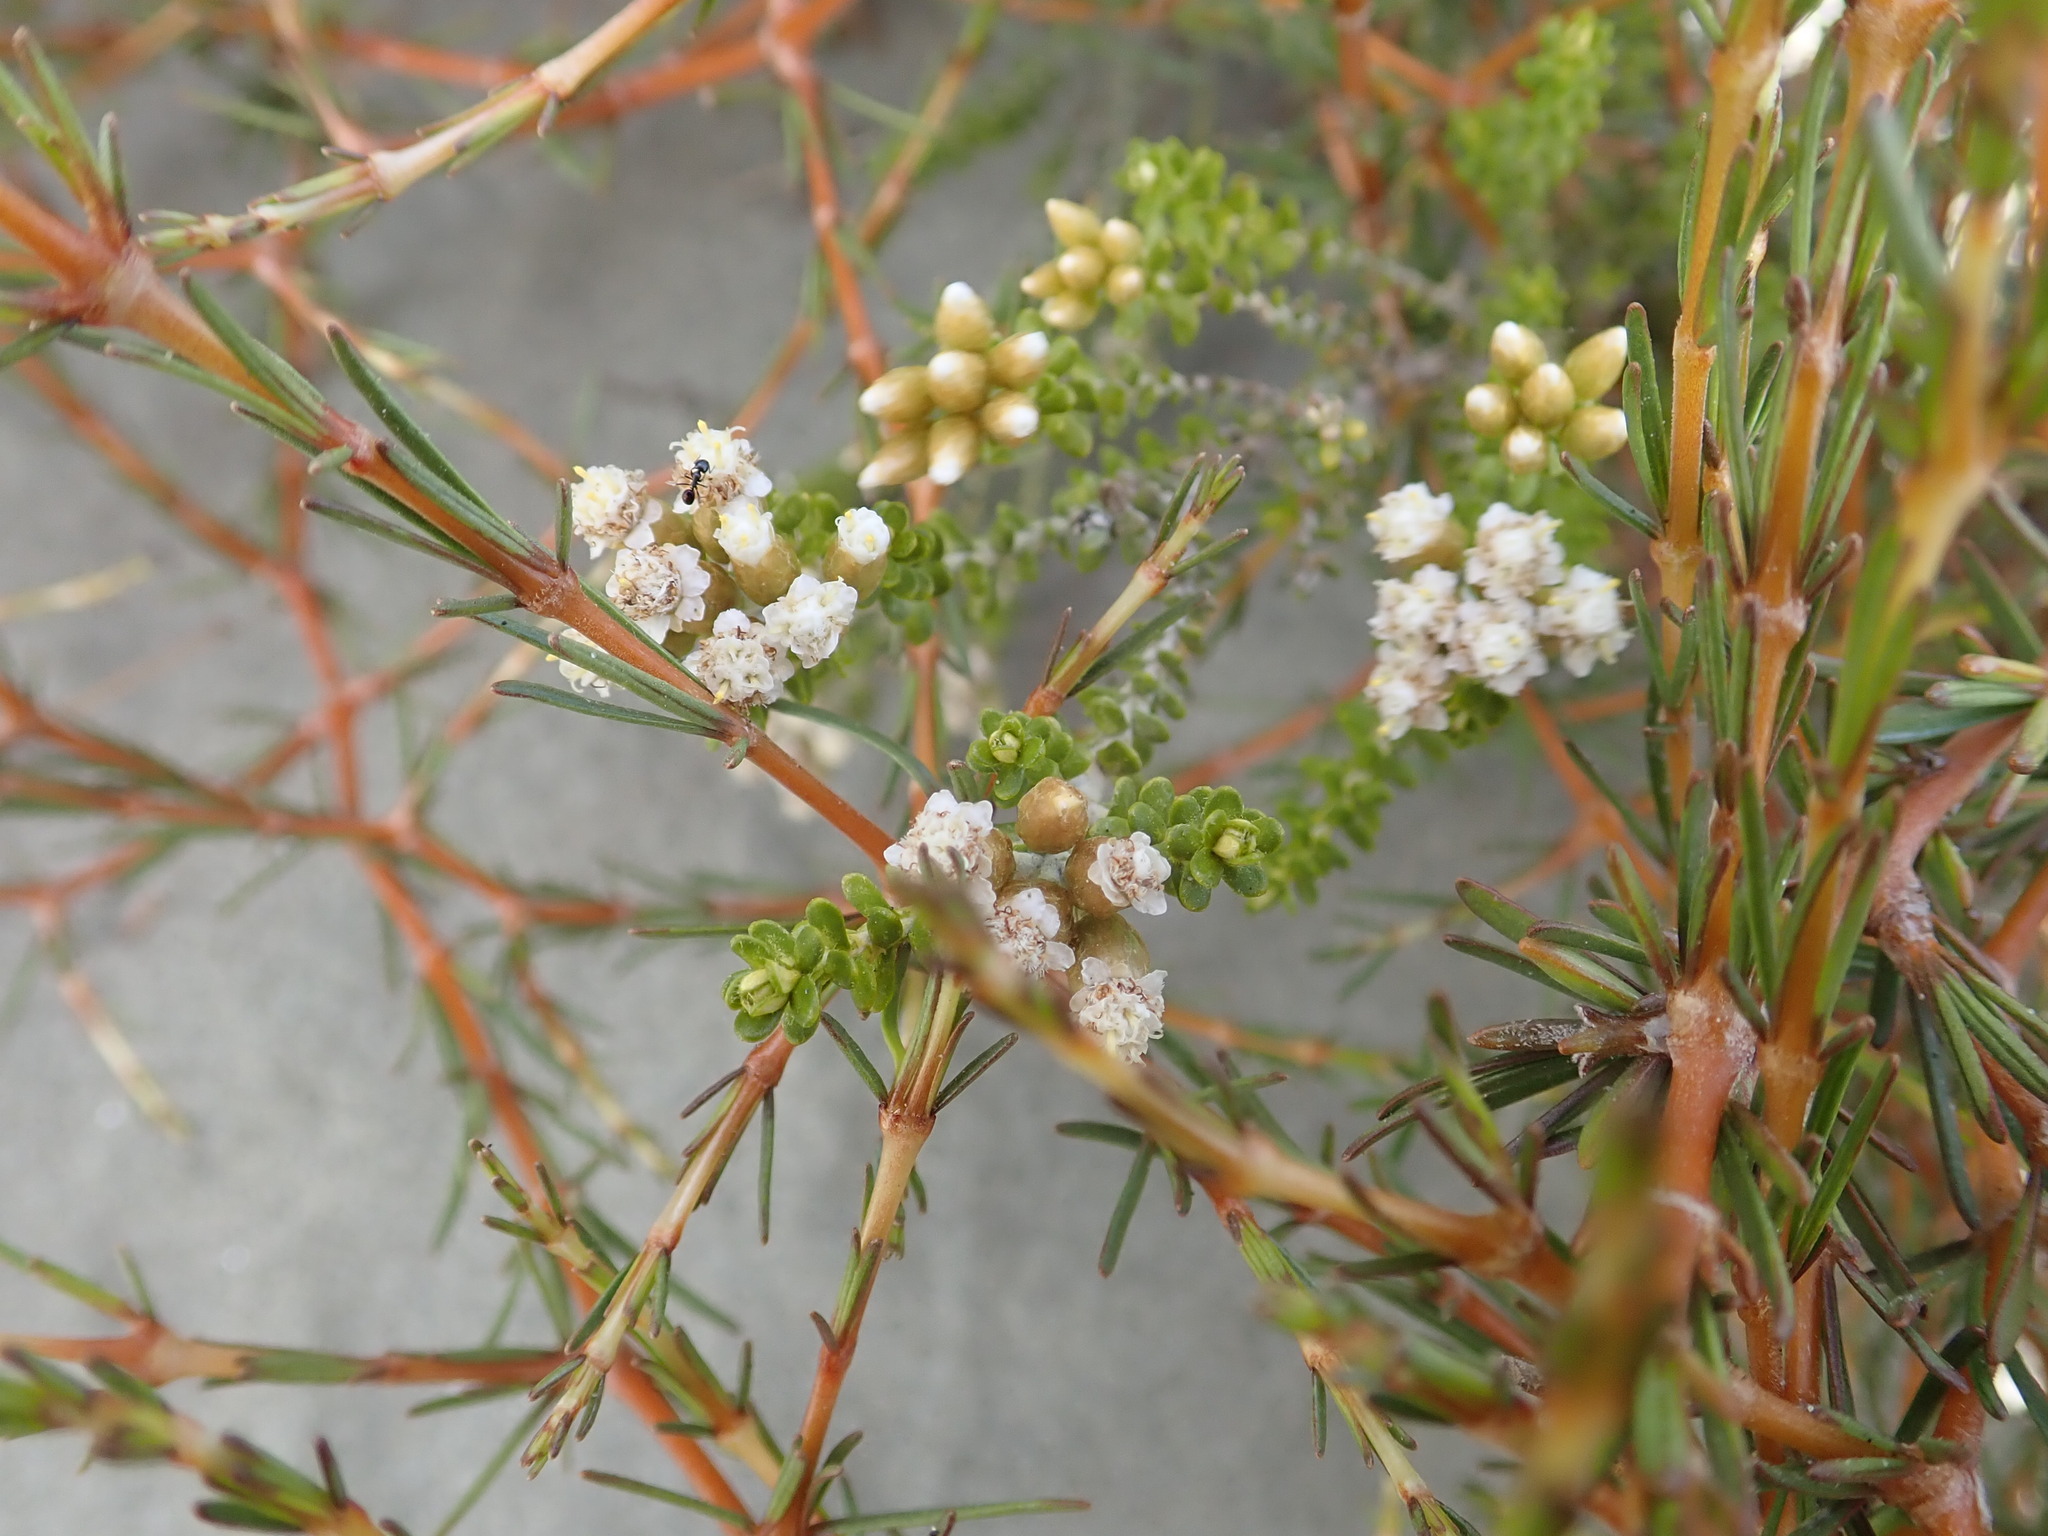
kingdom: Plantae
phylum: Tracheophyta
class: Magnoliopsida
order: Asterales
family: Asteraceae
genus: Ozothamnus
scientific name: Ozothamnus leptophyllus
